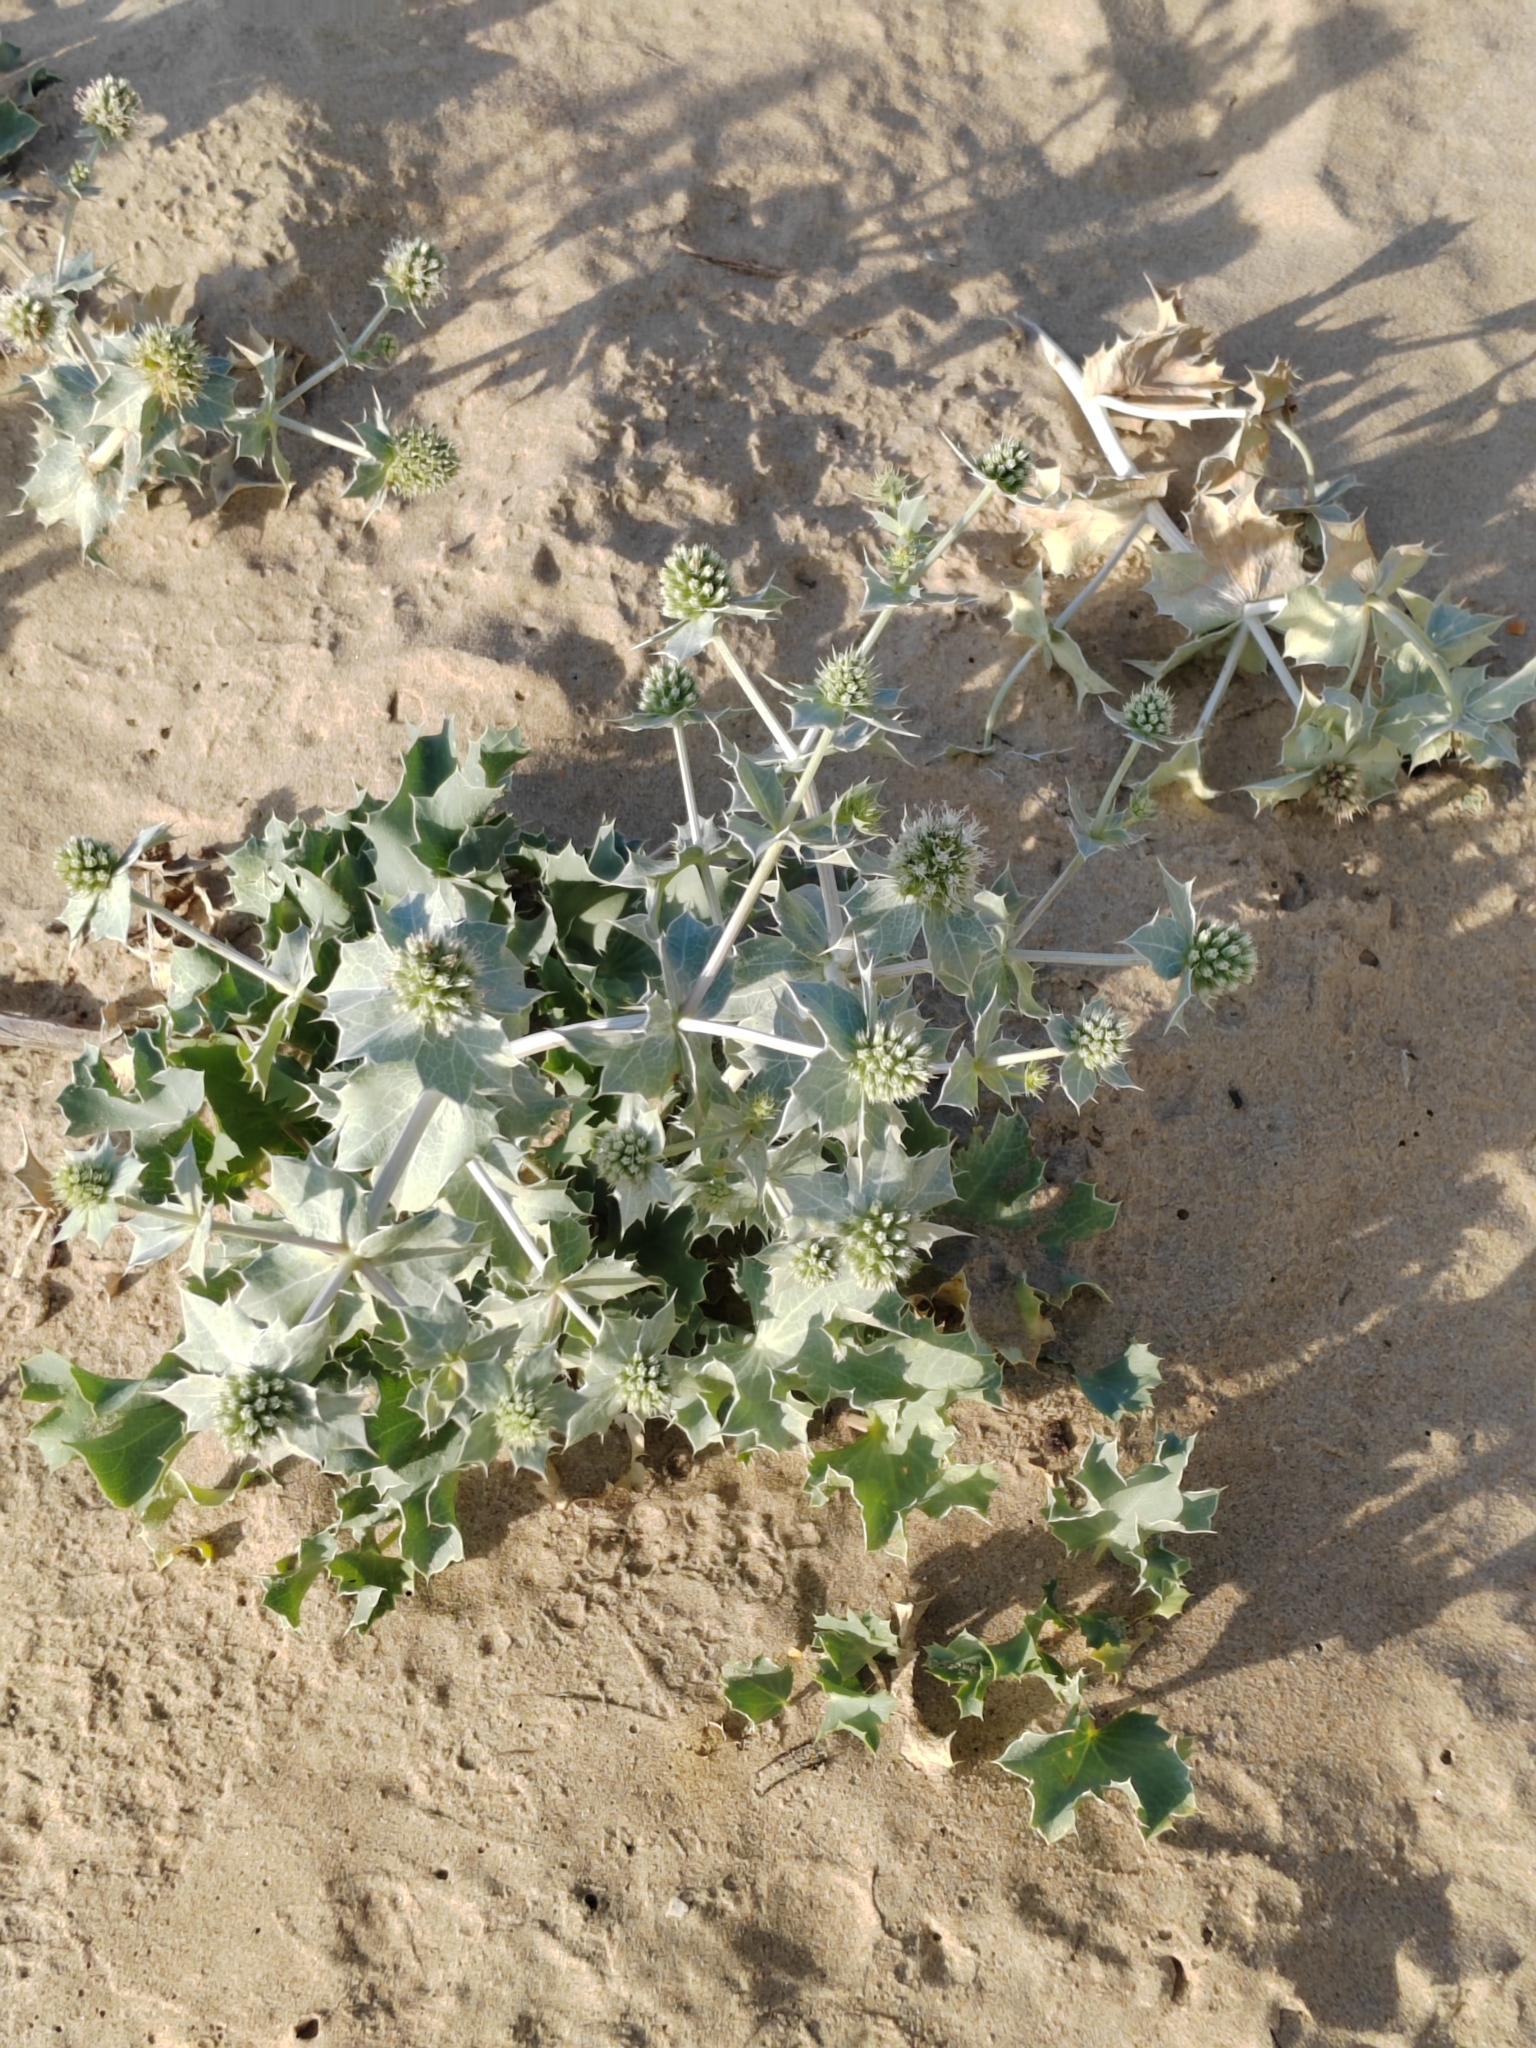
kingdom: Plantae
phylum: Tracheophyta
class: Magnoliopsida
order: Apiales
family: Apiaceae
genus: Eryngium
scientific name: Eryngium maritimum
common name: Sea-holly
